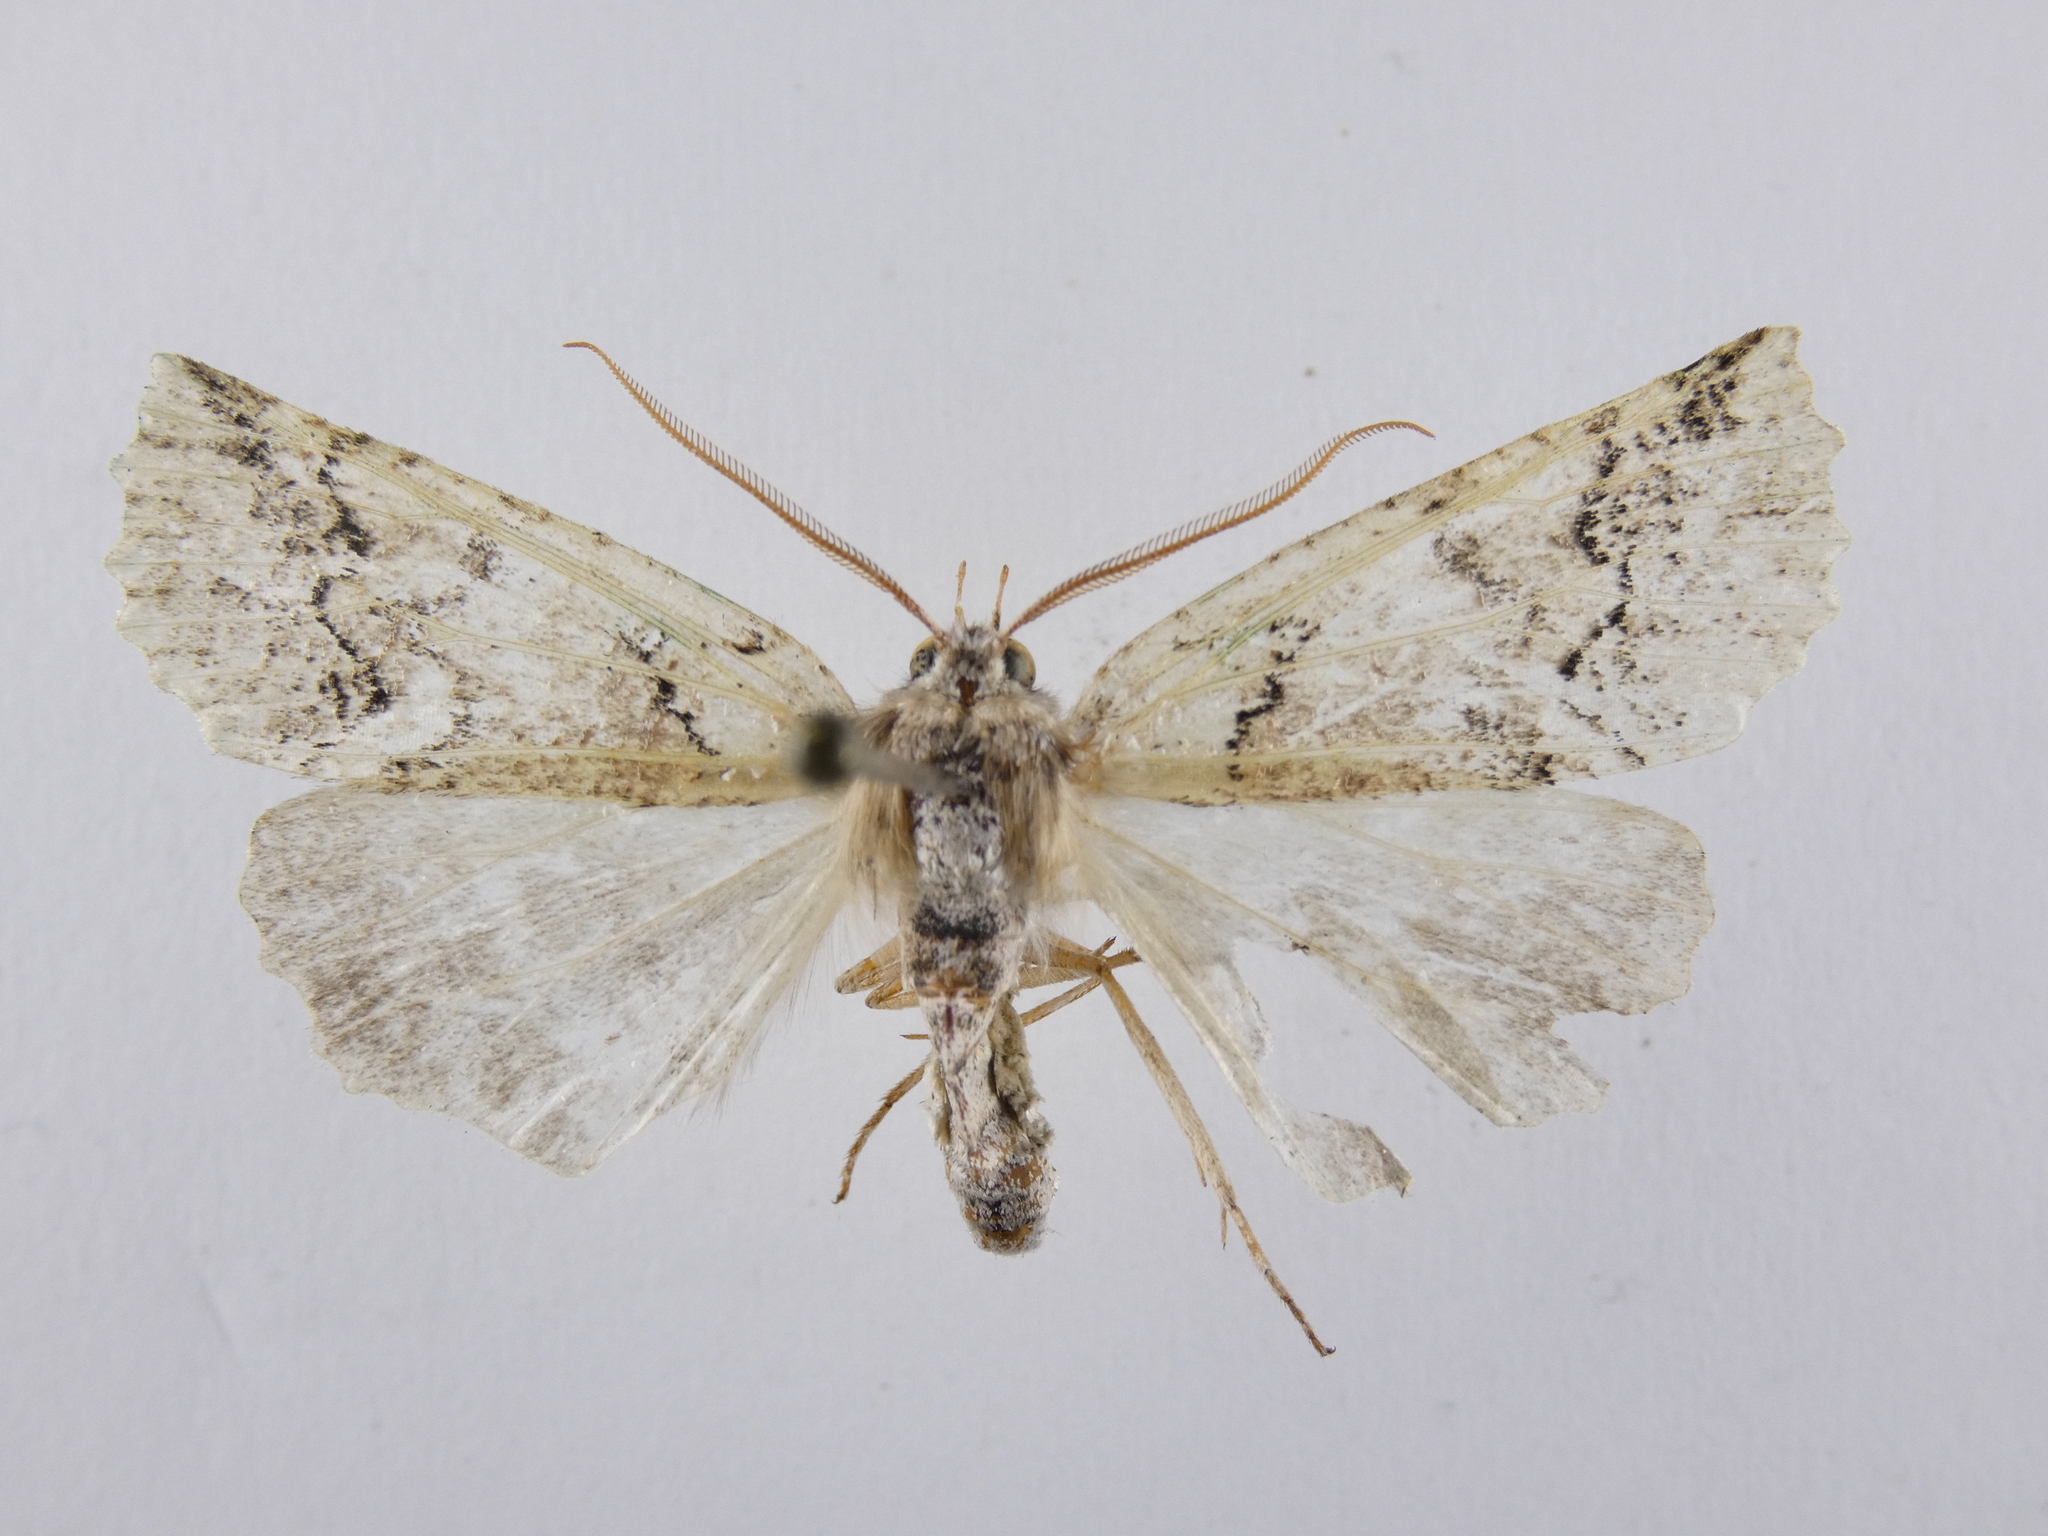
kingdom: Animalia
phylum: Arthropoda
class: Insecta
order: Lepidoptera
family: Geometridae
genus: Declana
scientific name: Declana floccosa
